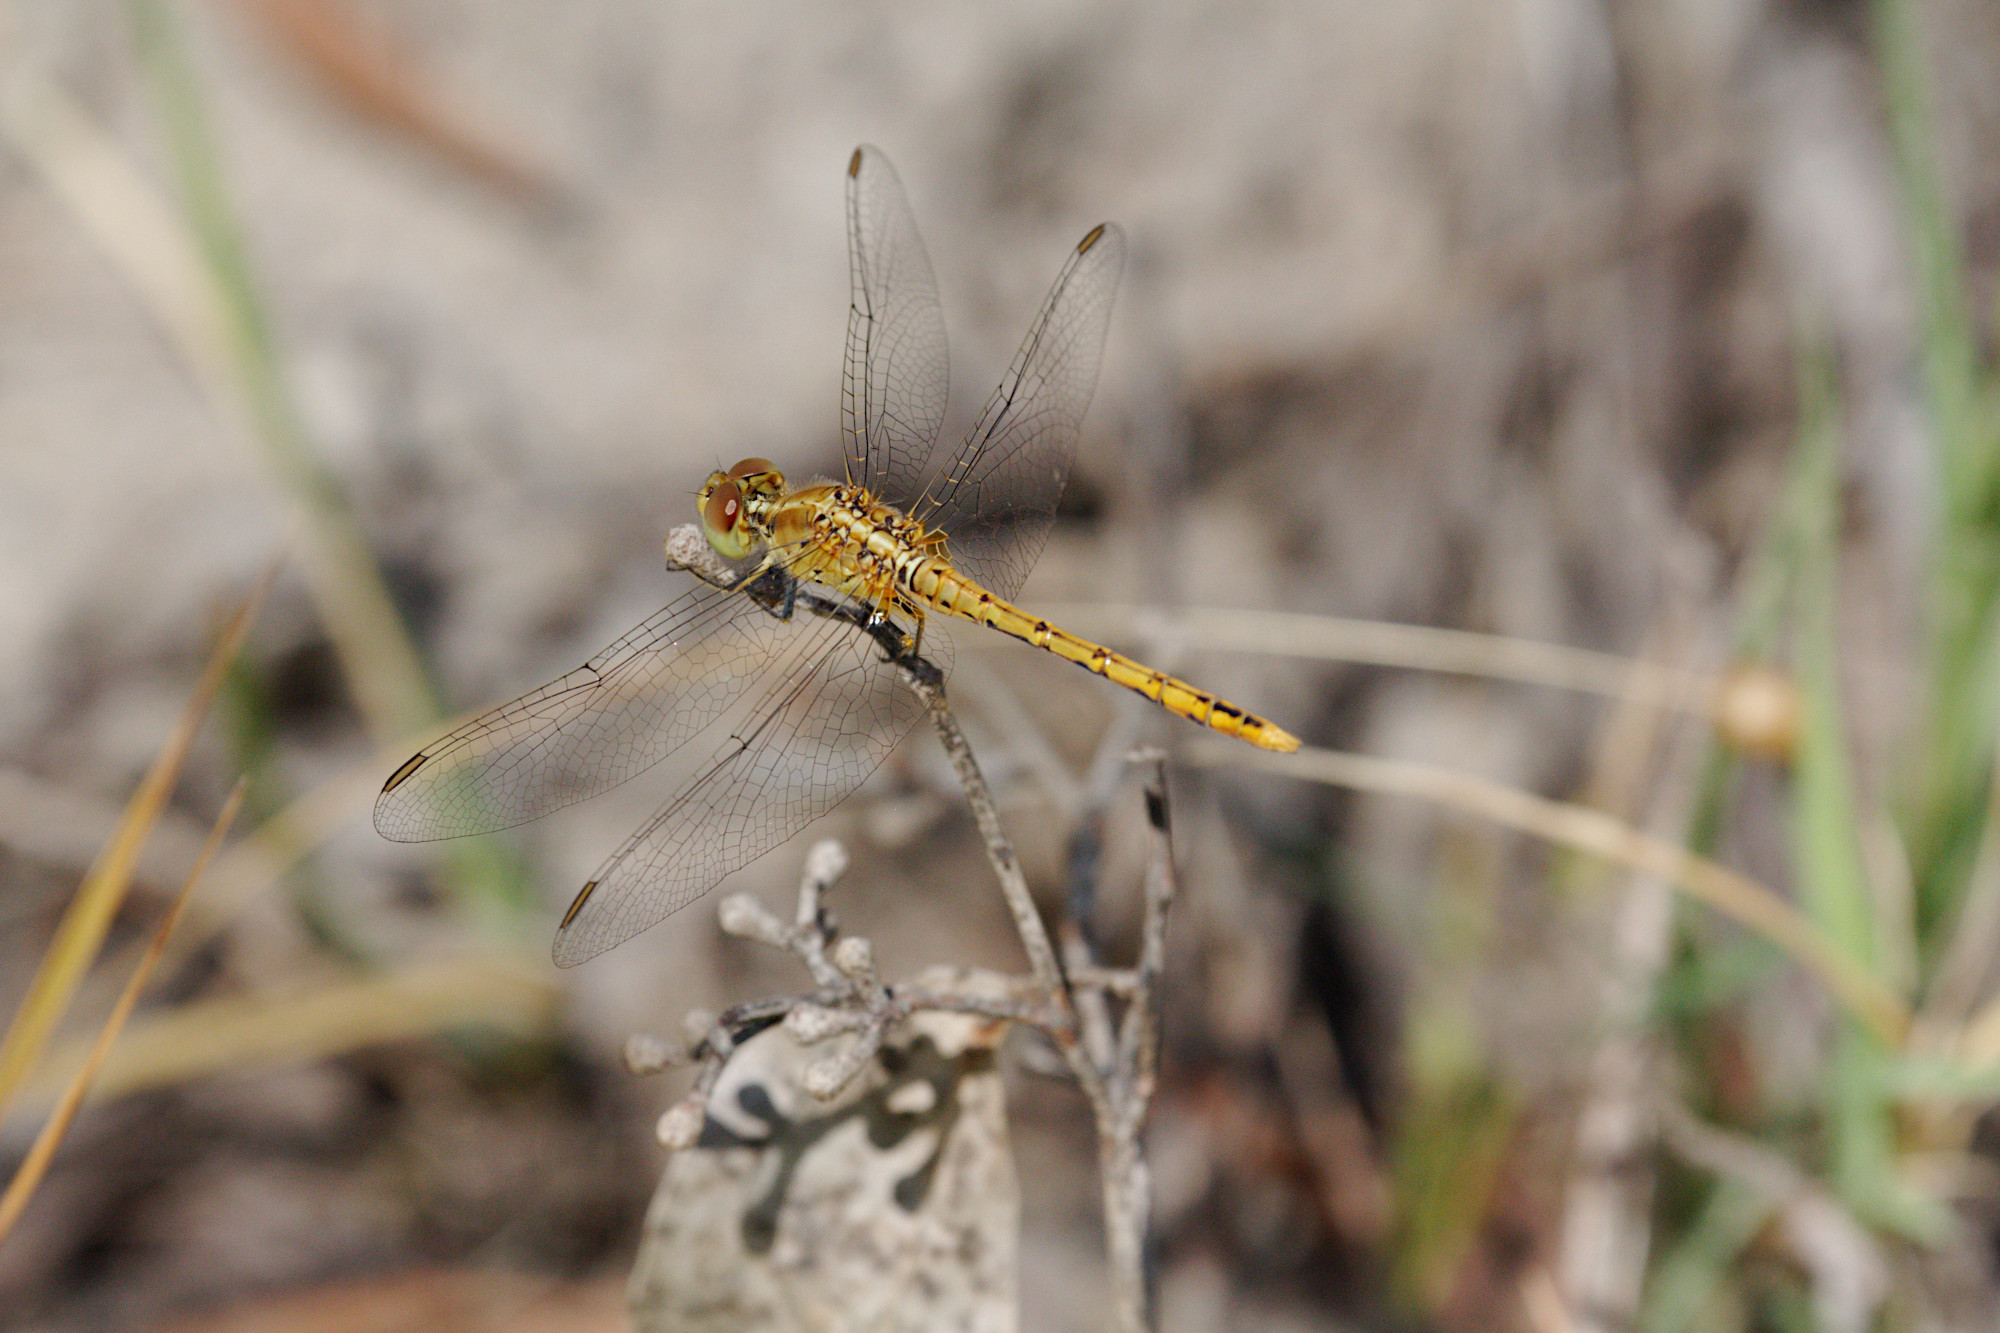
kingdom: Animalia
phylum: Arthropoda
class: Insecta
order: Odonata
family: Libellulidae
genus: Diplacodes
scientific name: Diplacodes bipunctata
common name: Red percher dragonfly
